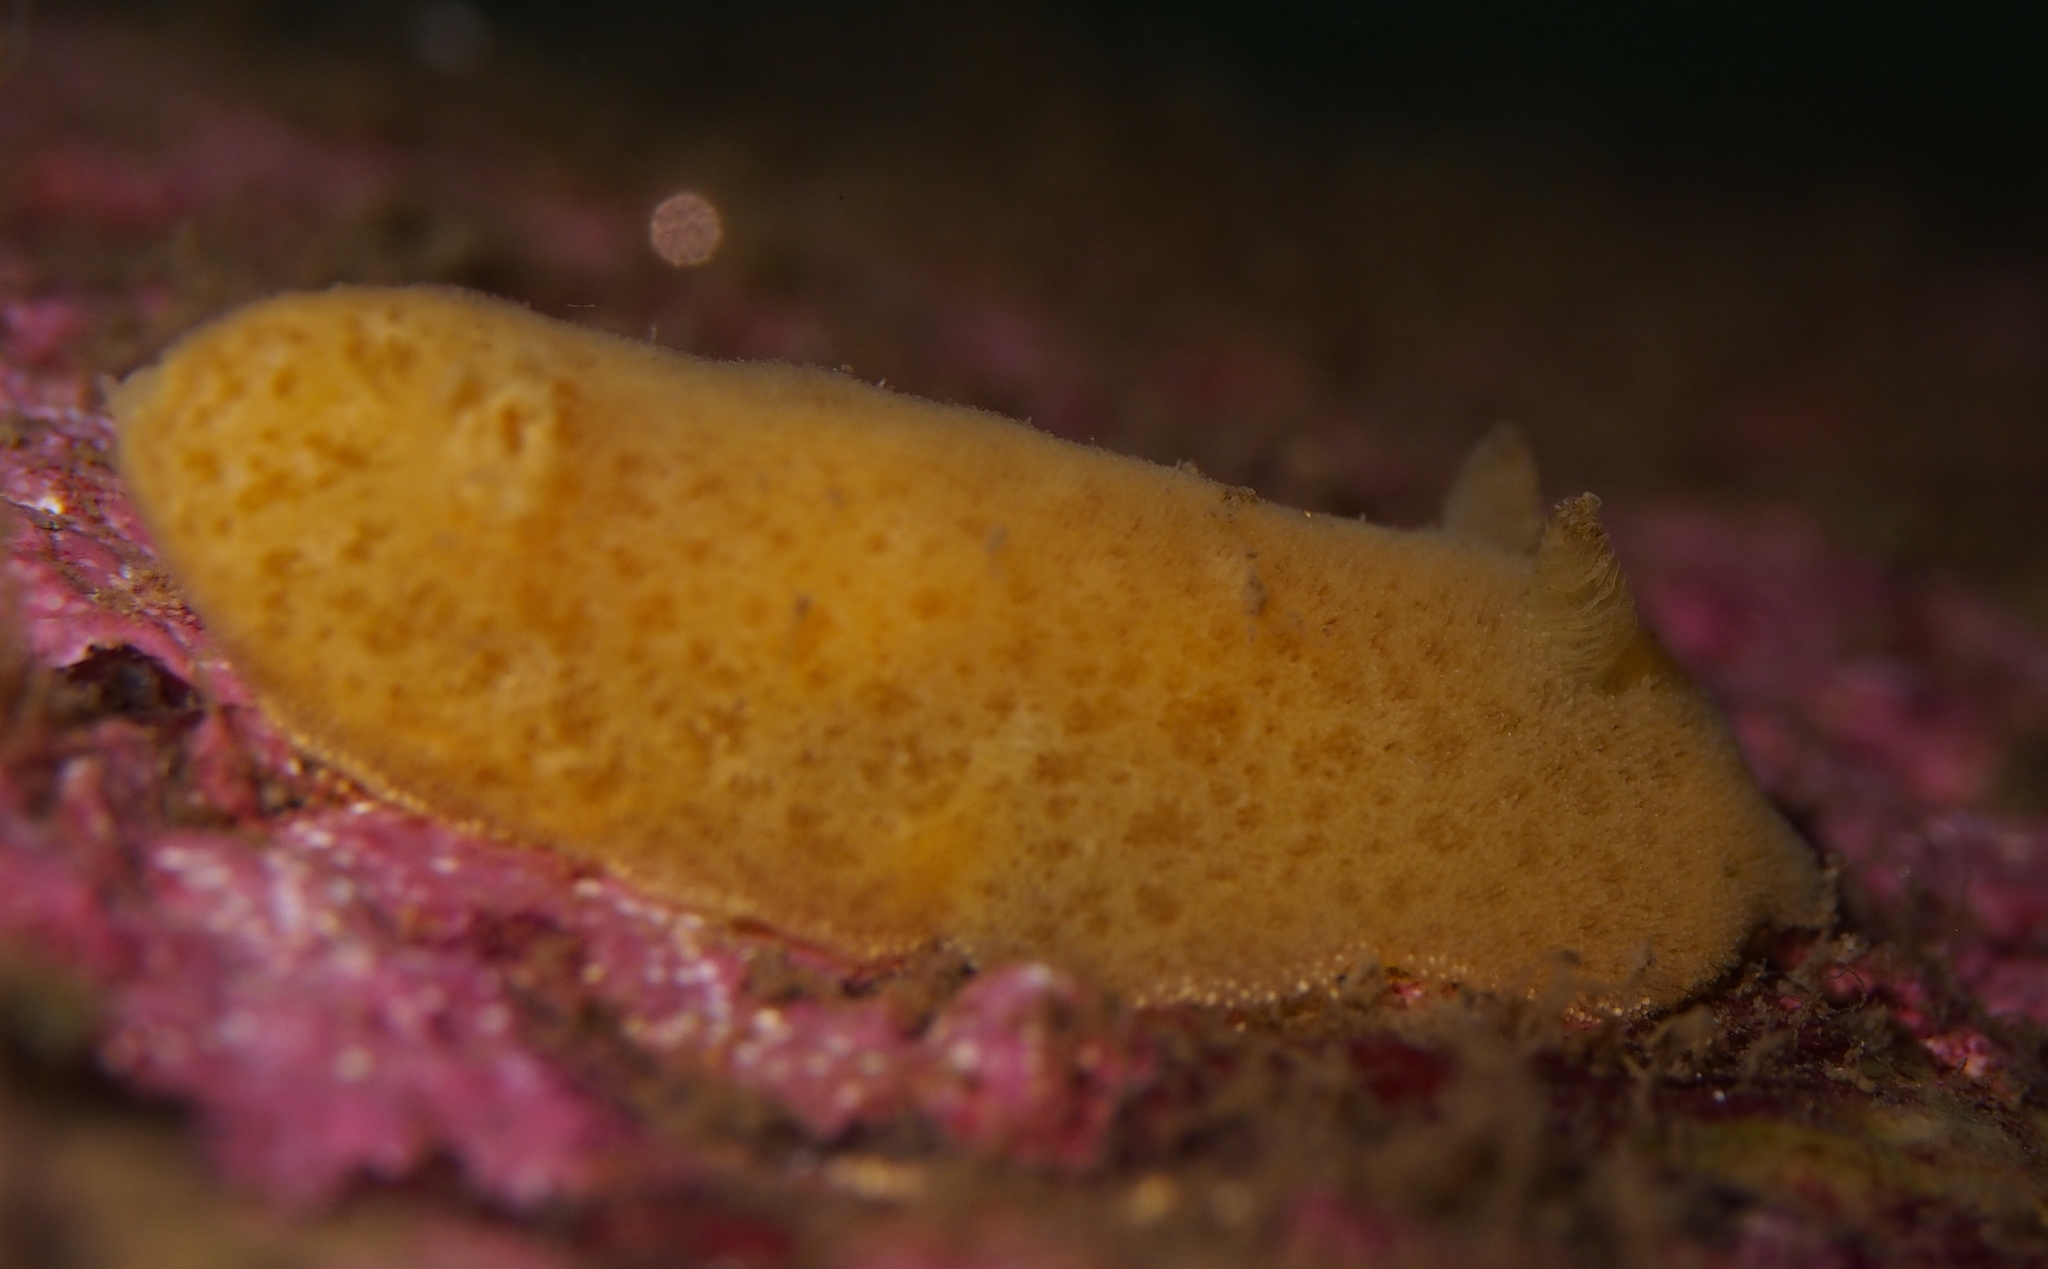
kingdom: Animalia
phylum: Mollusca
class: Gastropoda
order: Nudibranchia
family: Discodorididae
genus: Jorunna
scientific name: Jorunna tomentosa
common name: Grey sea slug
